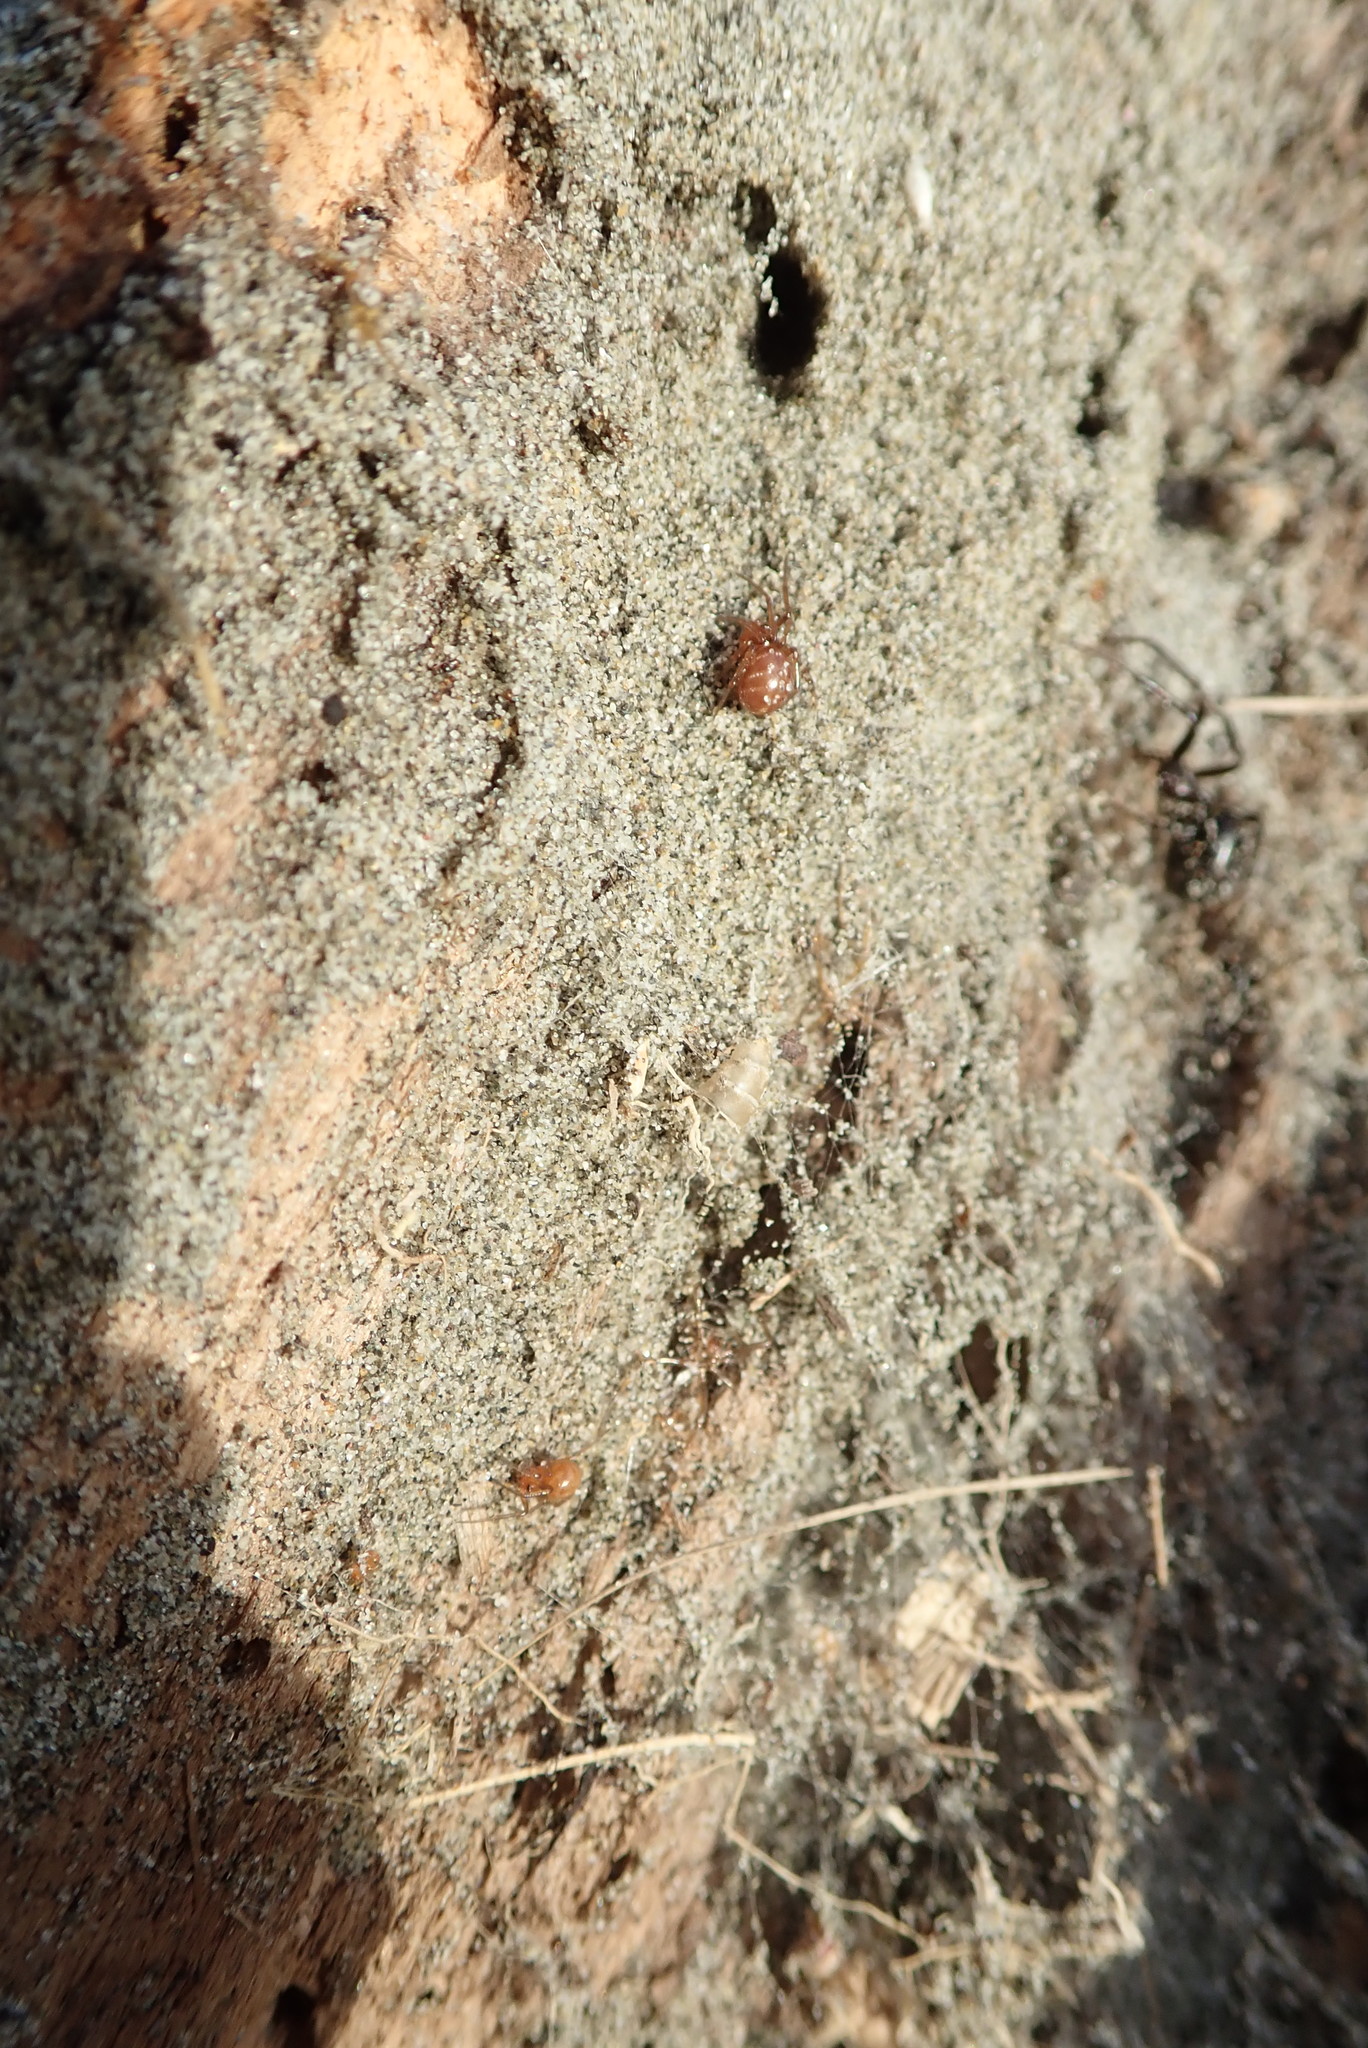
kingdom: Animalia
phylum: Arthropoda
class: Arachnida
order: Araneae
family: Theridiidae
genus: Steatoda
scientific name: Steatoda capensis
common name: Cobweb weaver
